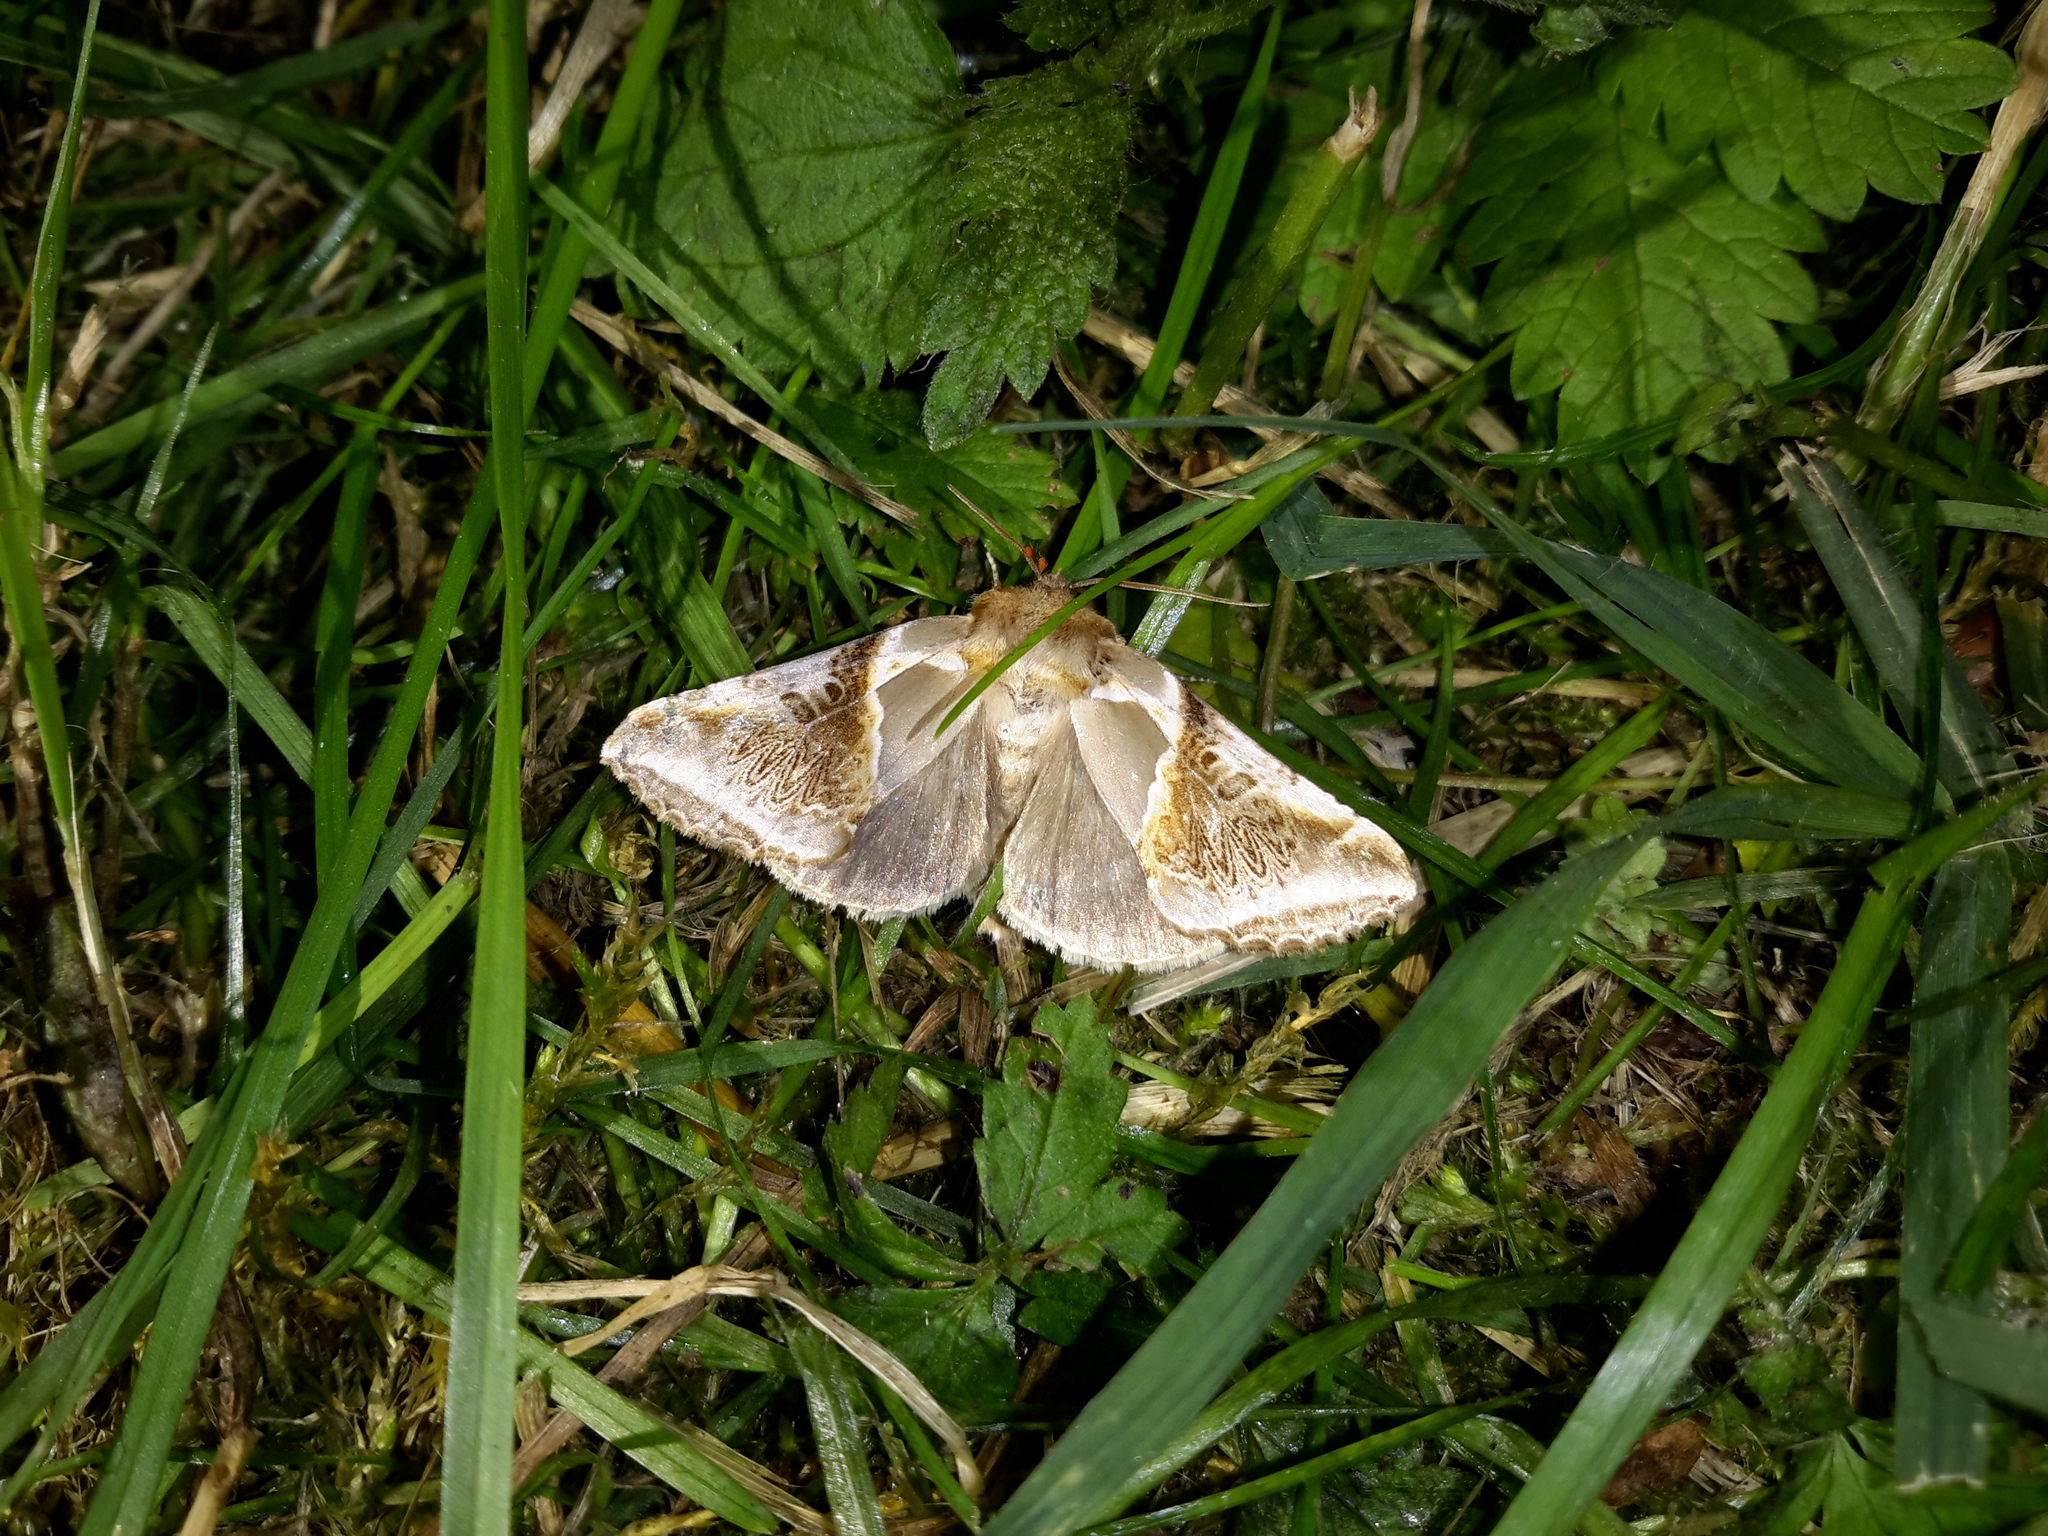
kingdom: Animalia
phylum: Arthropoda
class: Insecta
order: Lepidoptera
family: Drepanidae
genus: Habrosyne
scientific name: Habrosyne pyritoides
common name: Buff arches
